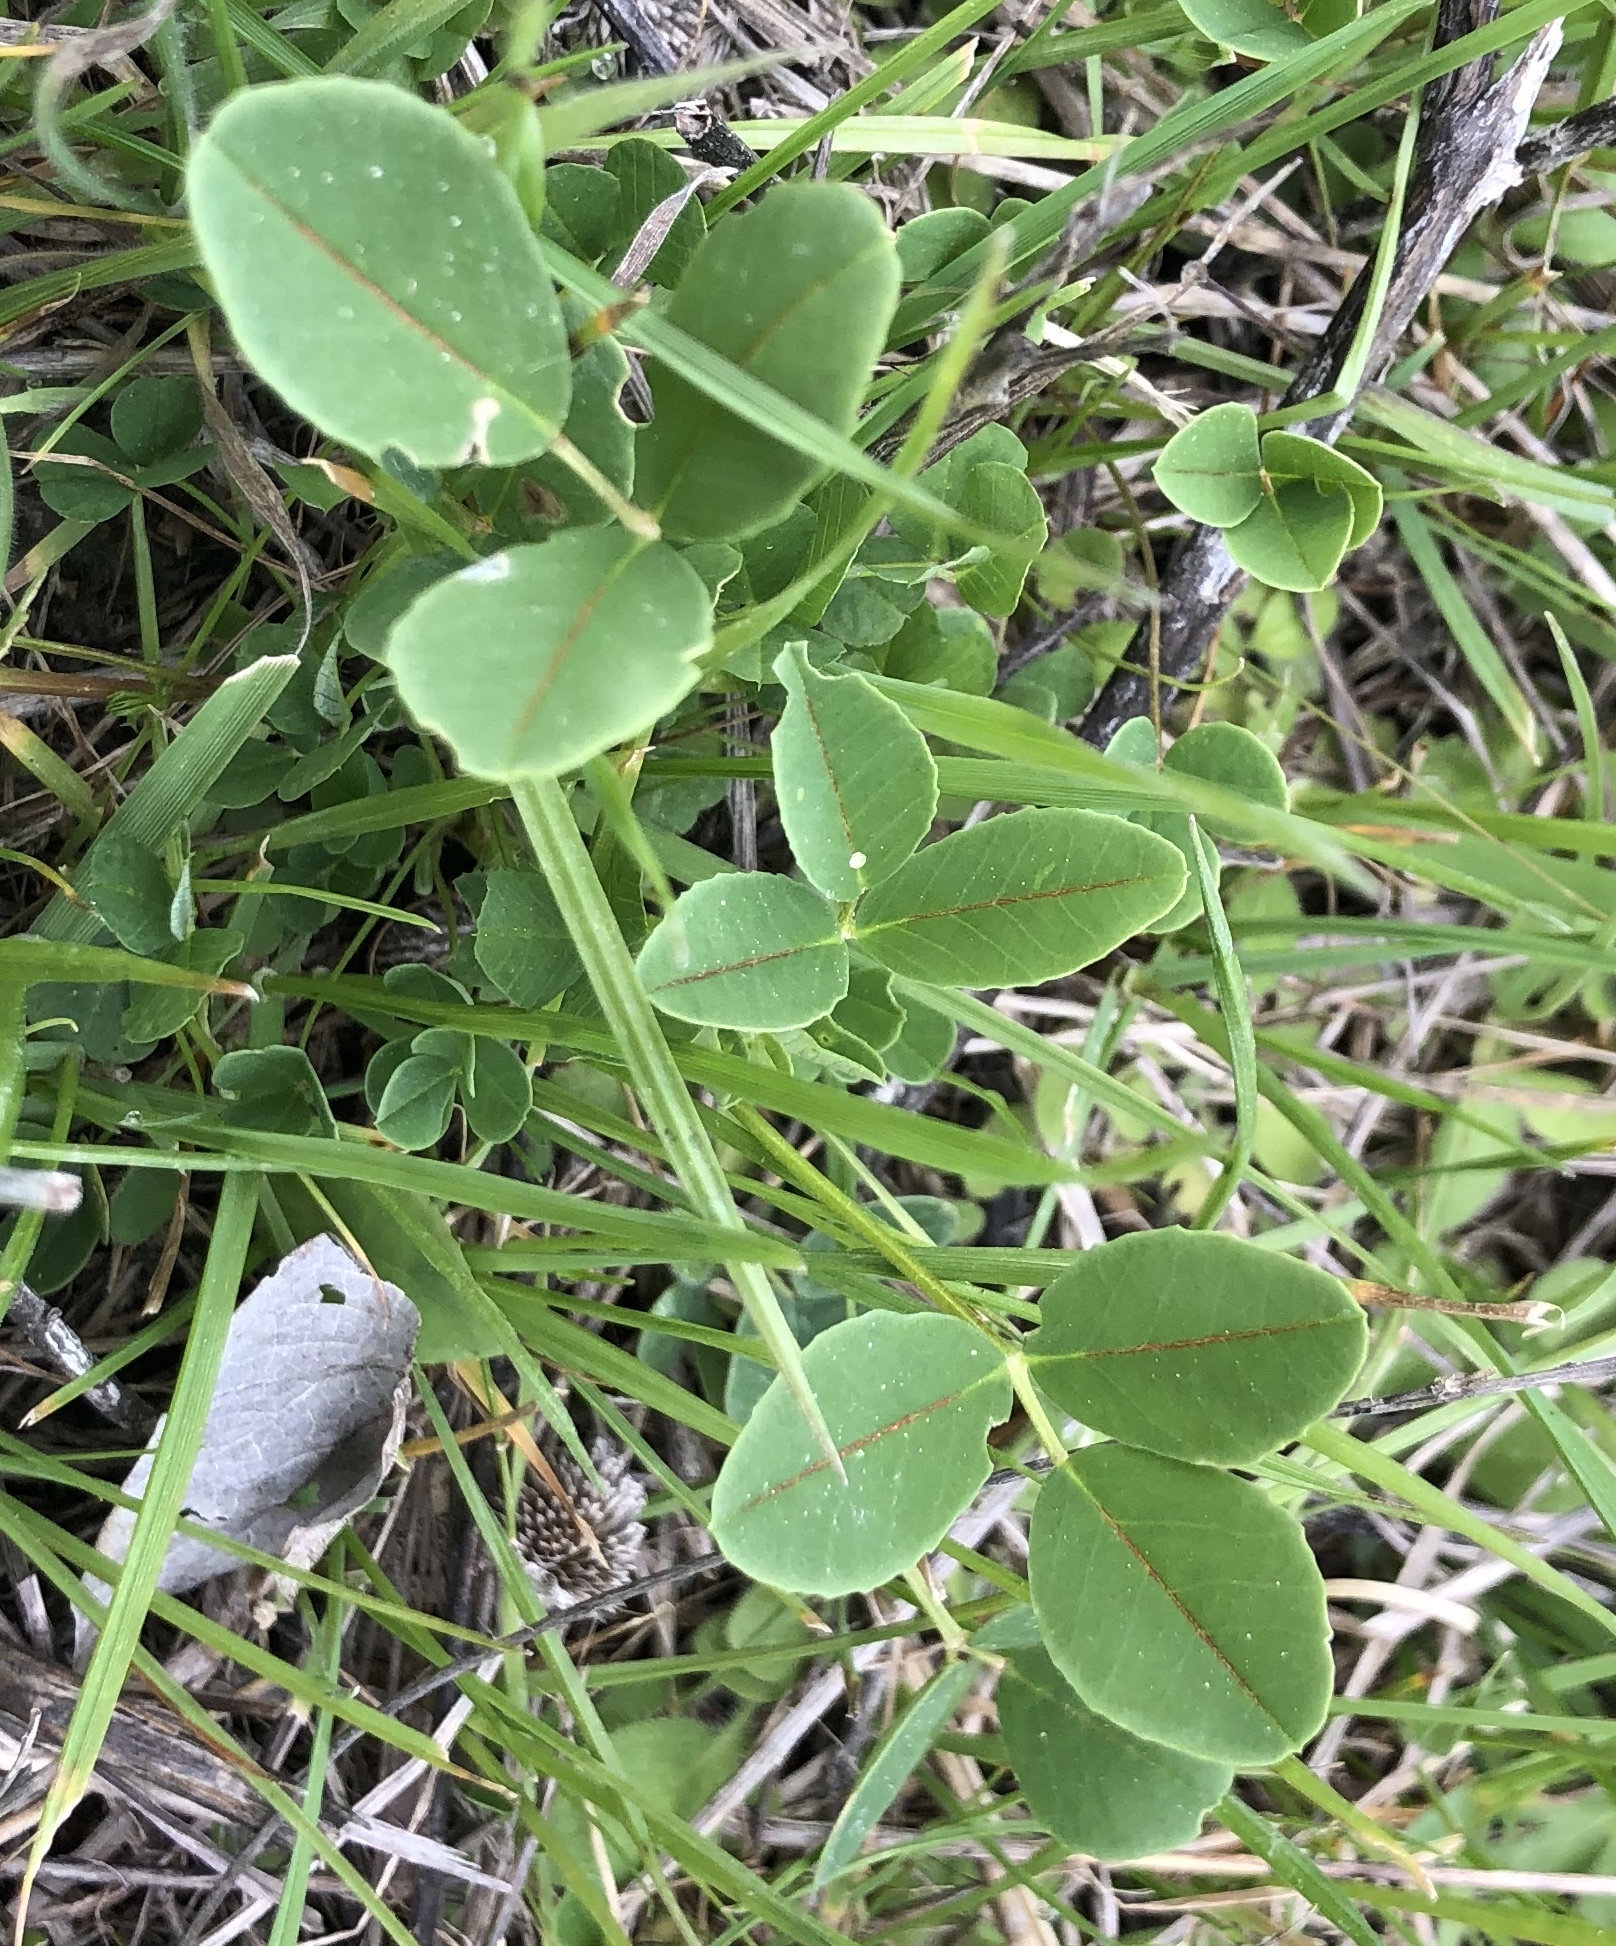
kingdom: Plantae
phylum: Tracheophyta
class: Magnoliopsida
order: Fabales
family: Fabaceae
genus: Melilotus
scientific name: Melilotus indicus
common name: Small melilot
